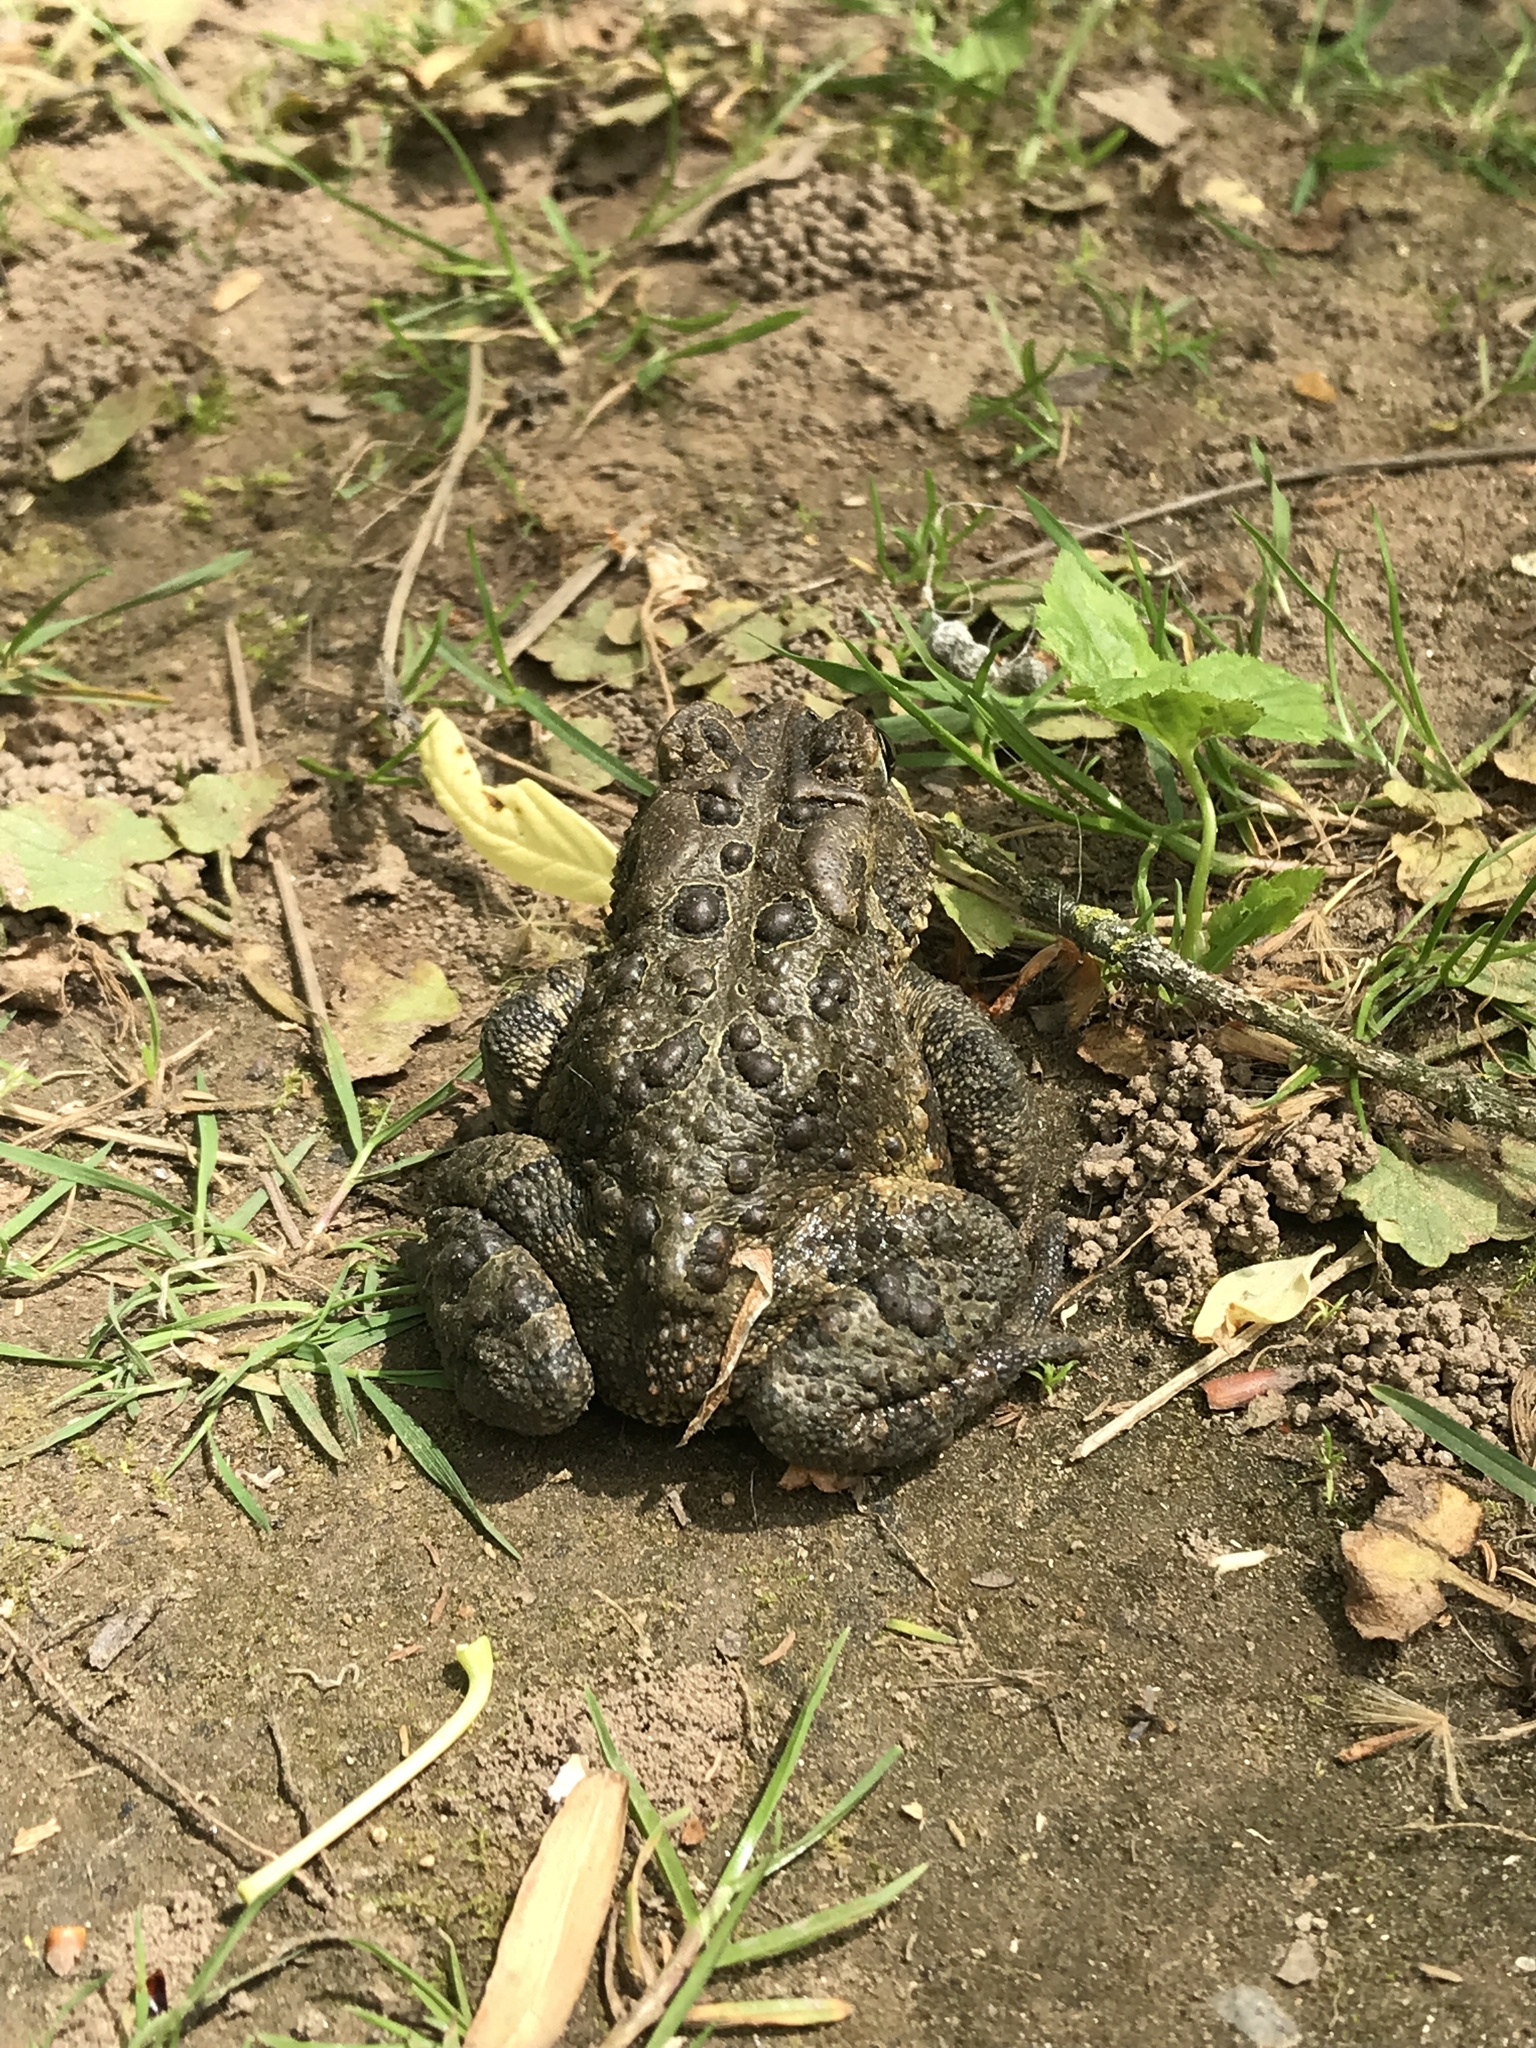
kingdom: Animalia
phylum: Chordata
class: Amphibia
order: Anura
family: Bufonidae
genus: Anaxyrus
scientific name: Anaxyrus americanus
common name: American toad
